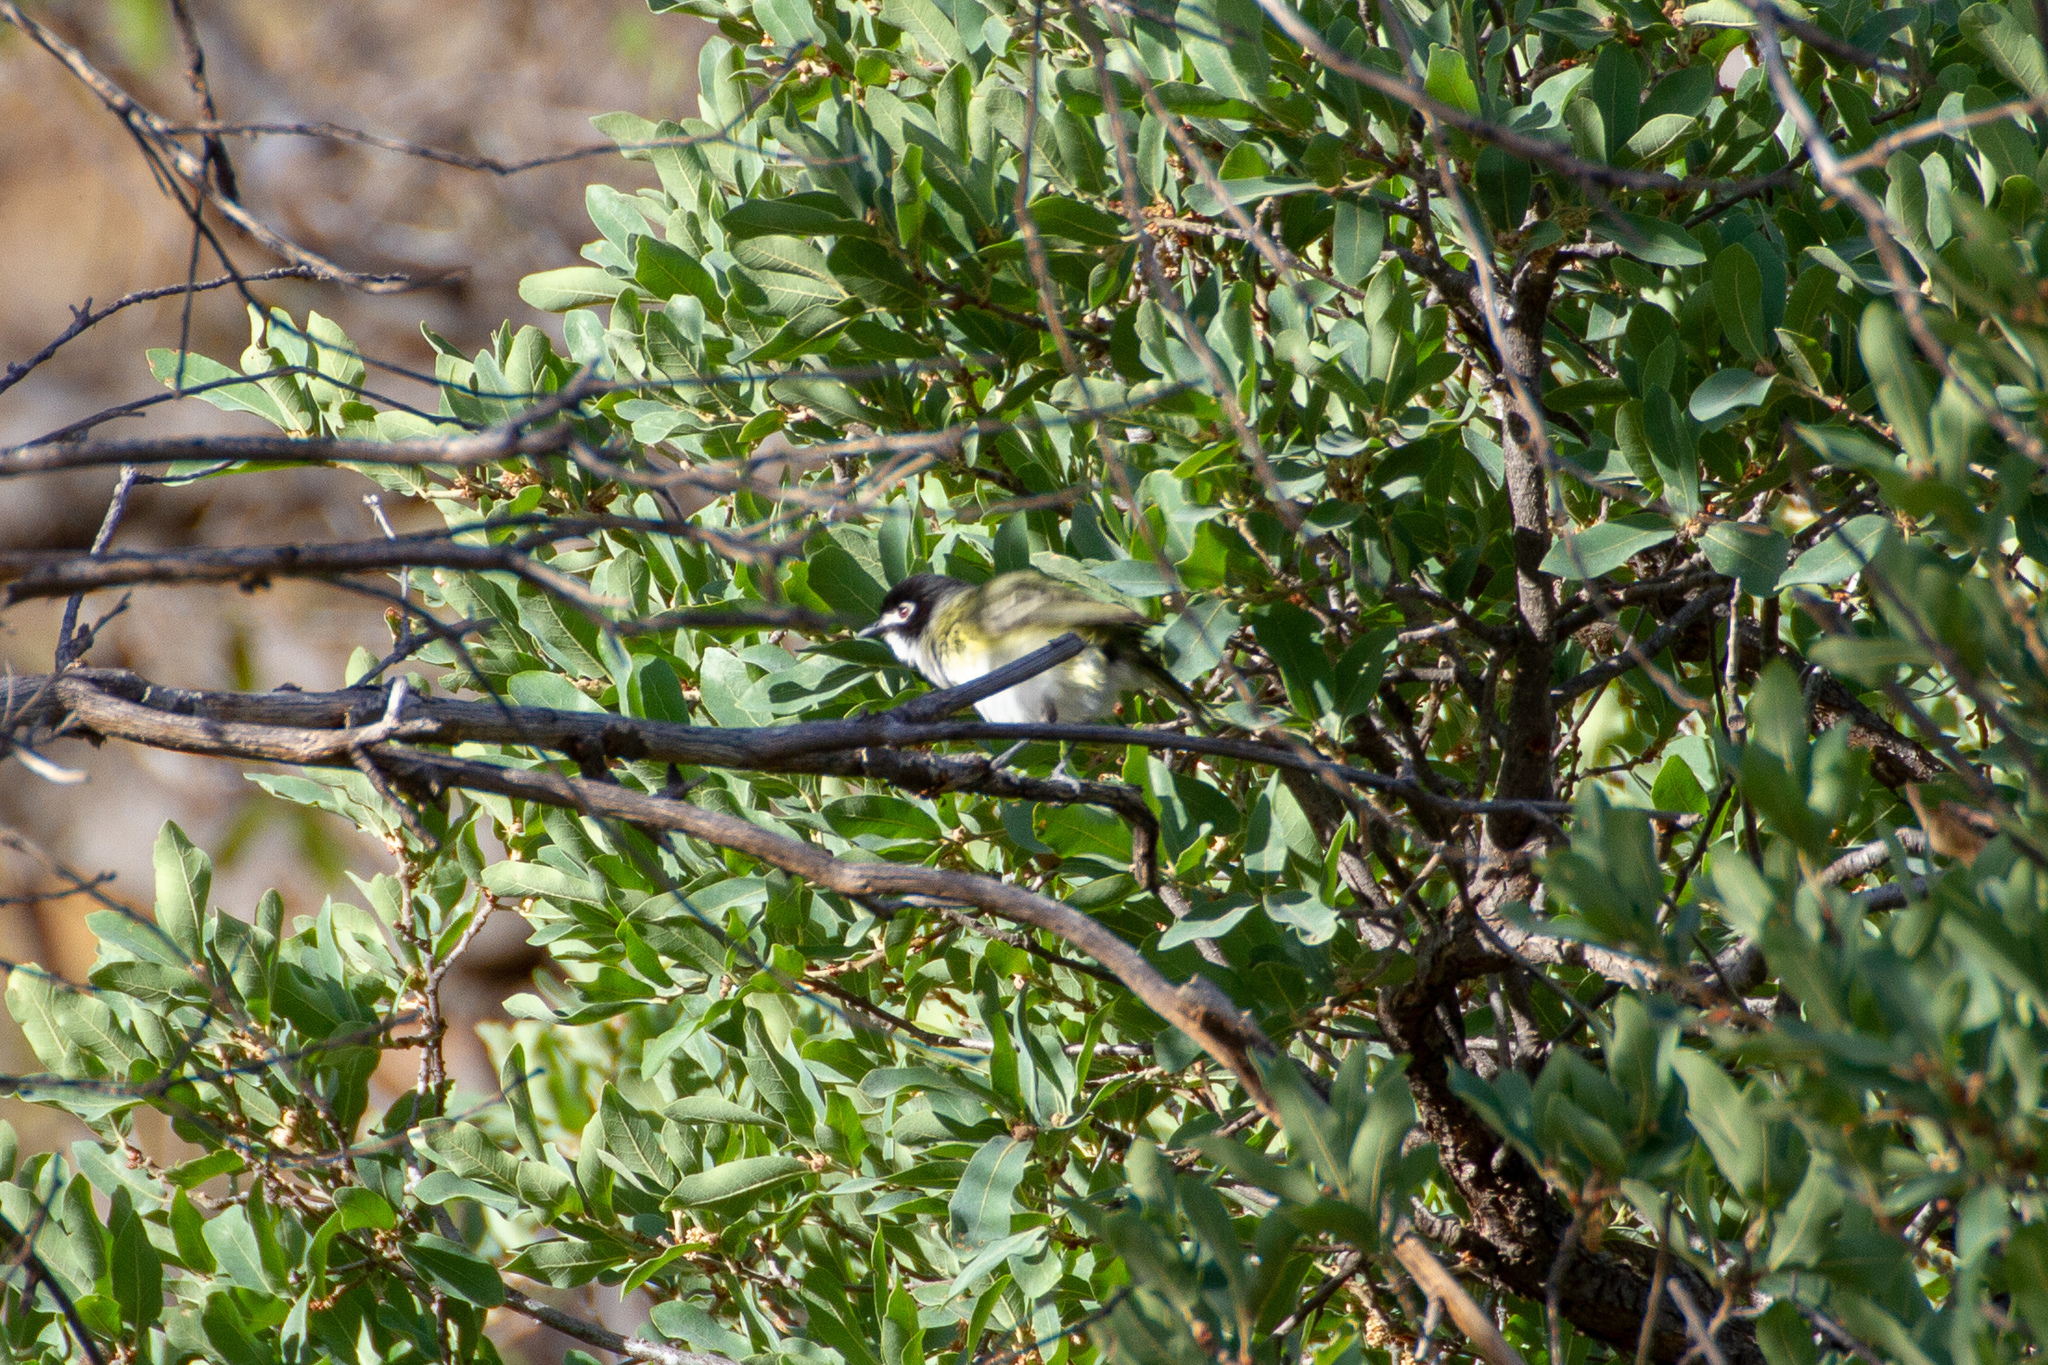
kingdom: Animalia
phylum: Chordata
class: Aves
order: Passeriformes
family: Vireonidae
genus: Vireo
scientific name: Vireo atricapilla
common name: Black-capped vireo
